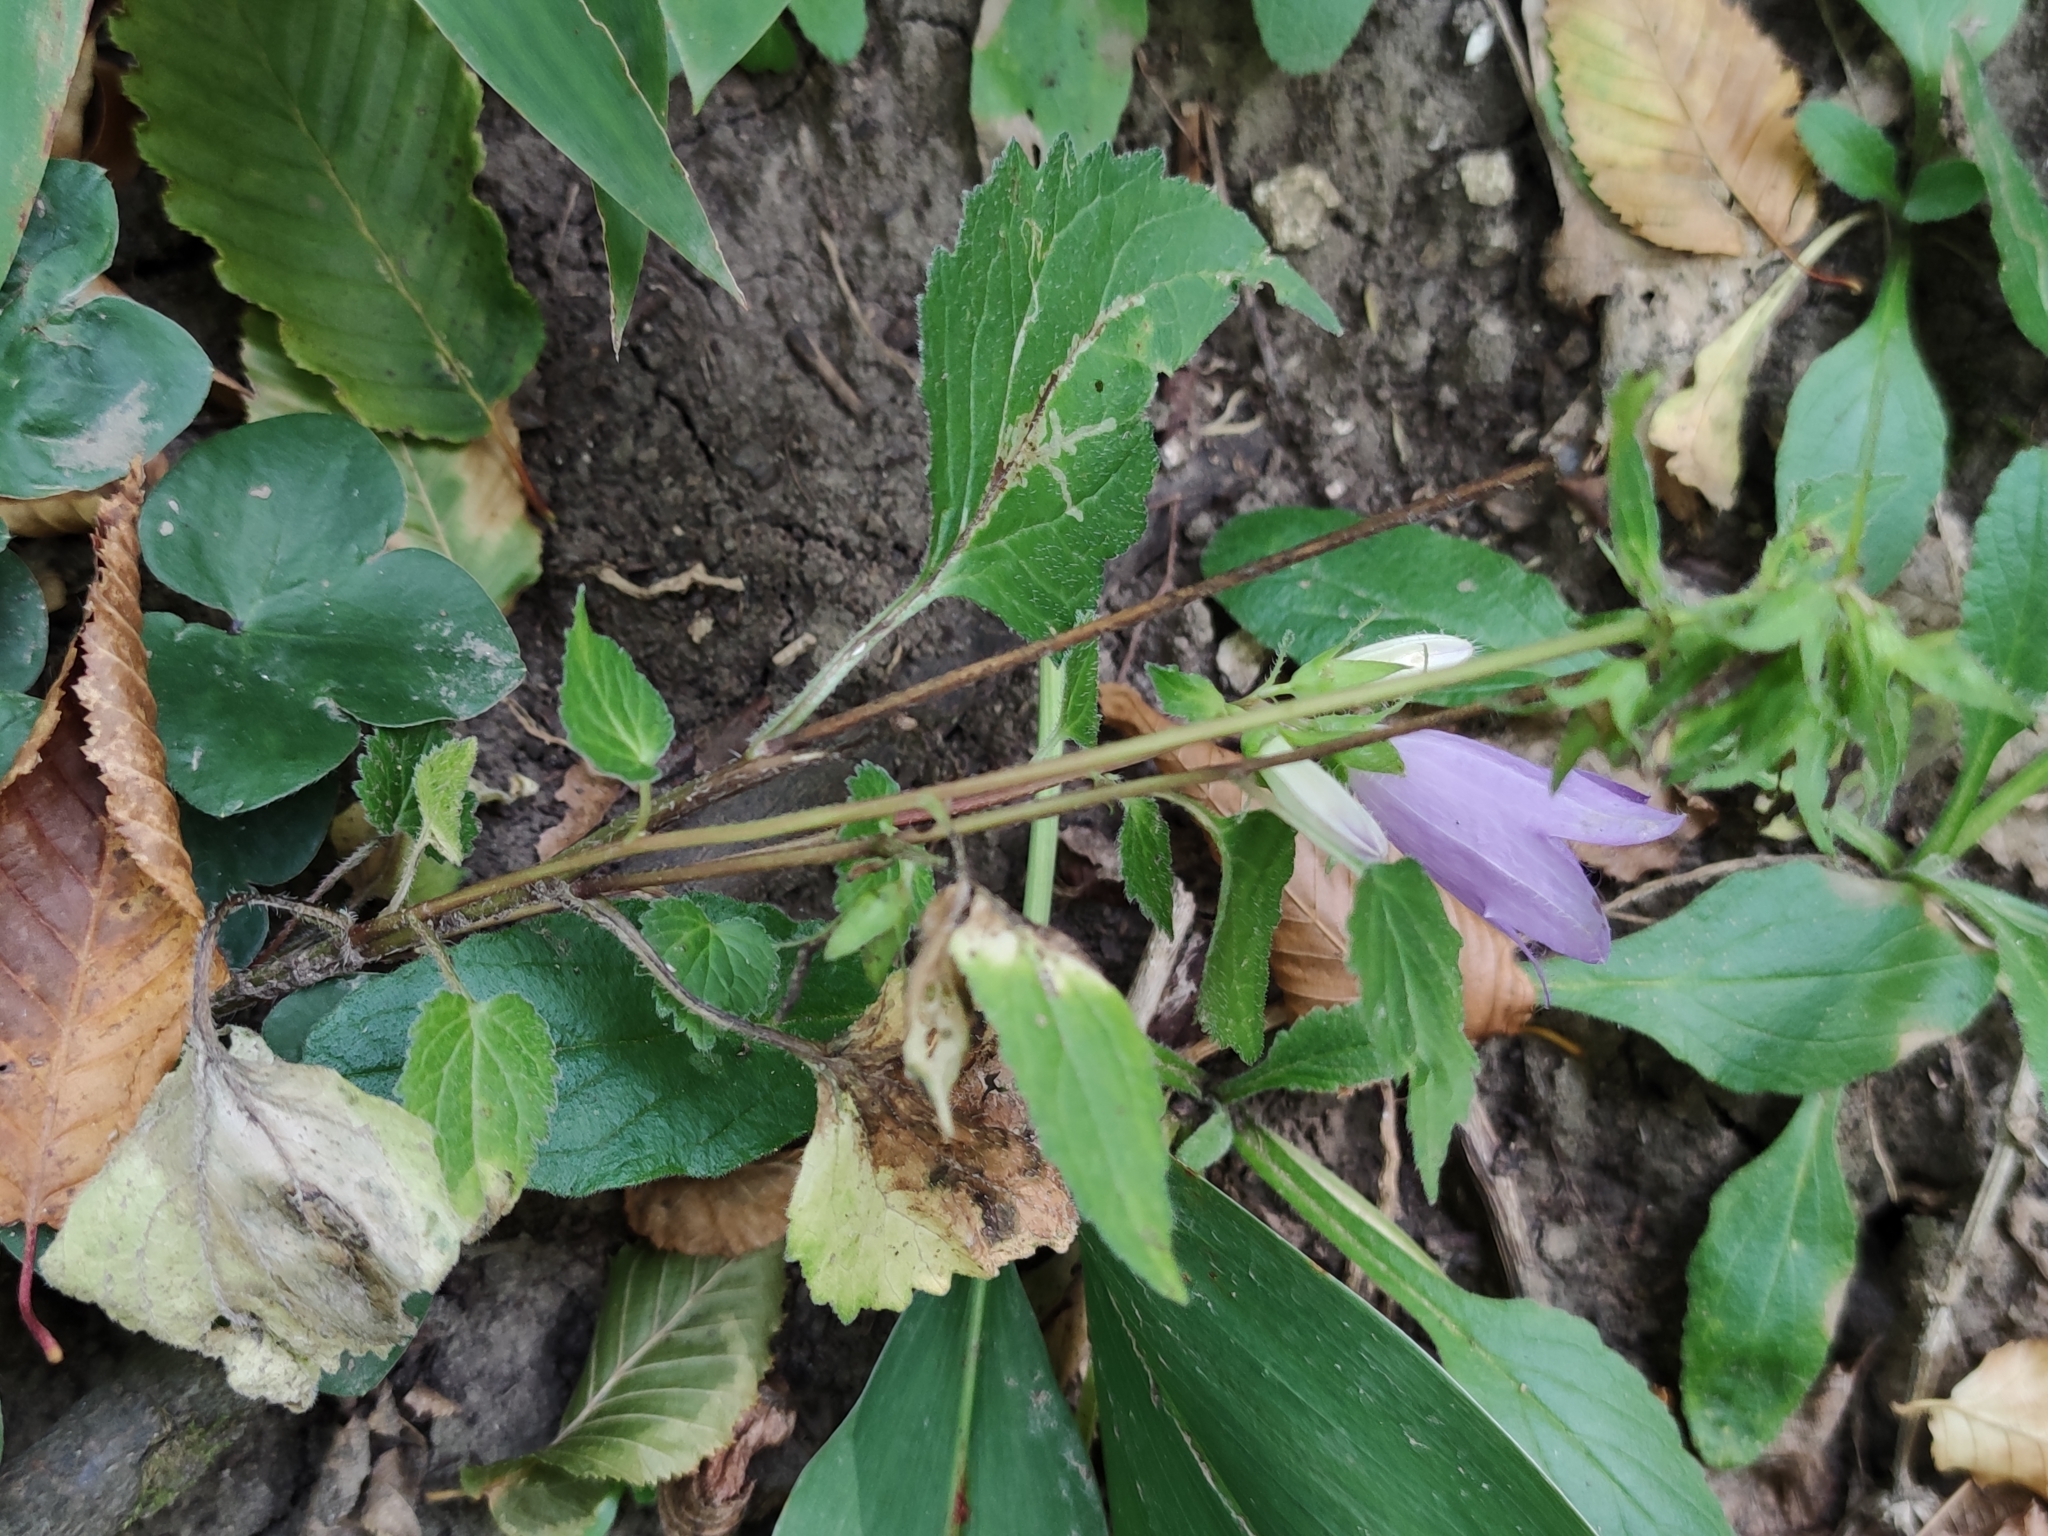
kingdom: Plantae
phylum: Tracheophyta
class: Magnoliopsida
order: Asterales
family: Campanulaceae
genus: Campanula
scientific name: Campanula trachelium
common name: Nettle-leaved bellflower
